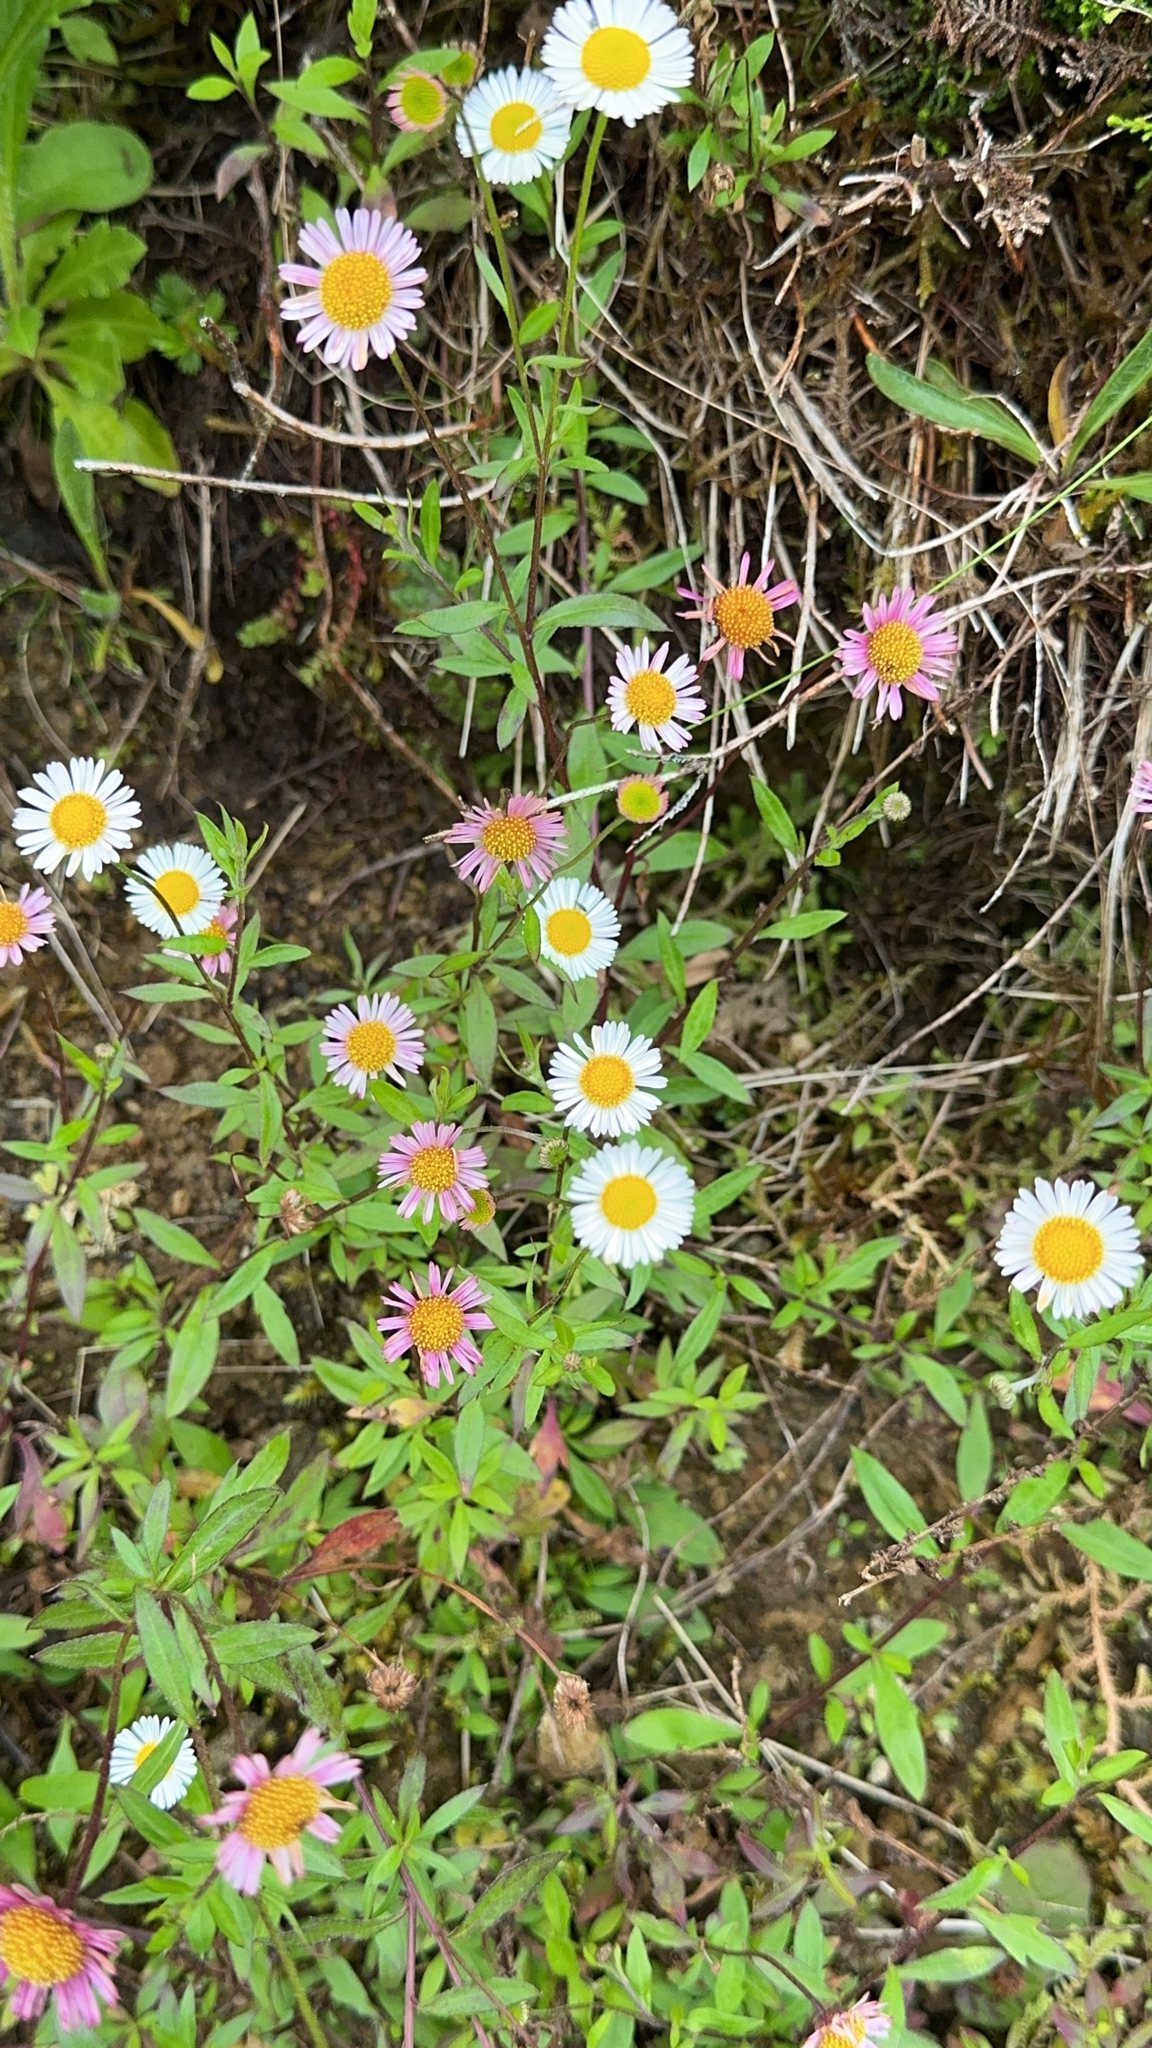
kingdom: Plantae
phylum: Tracheophyta
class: Magnoliopsida
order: Asterales
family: Asteraceae
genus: Erigeron
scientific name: Erigeron karvinskianus
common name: Mexican fleabane
